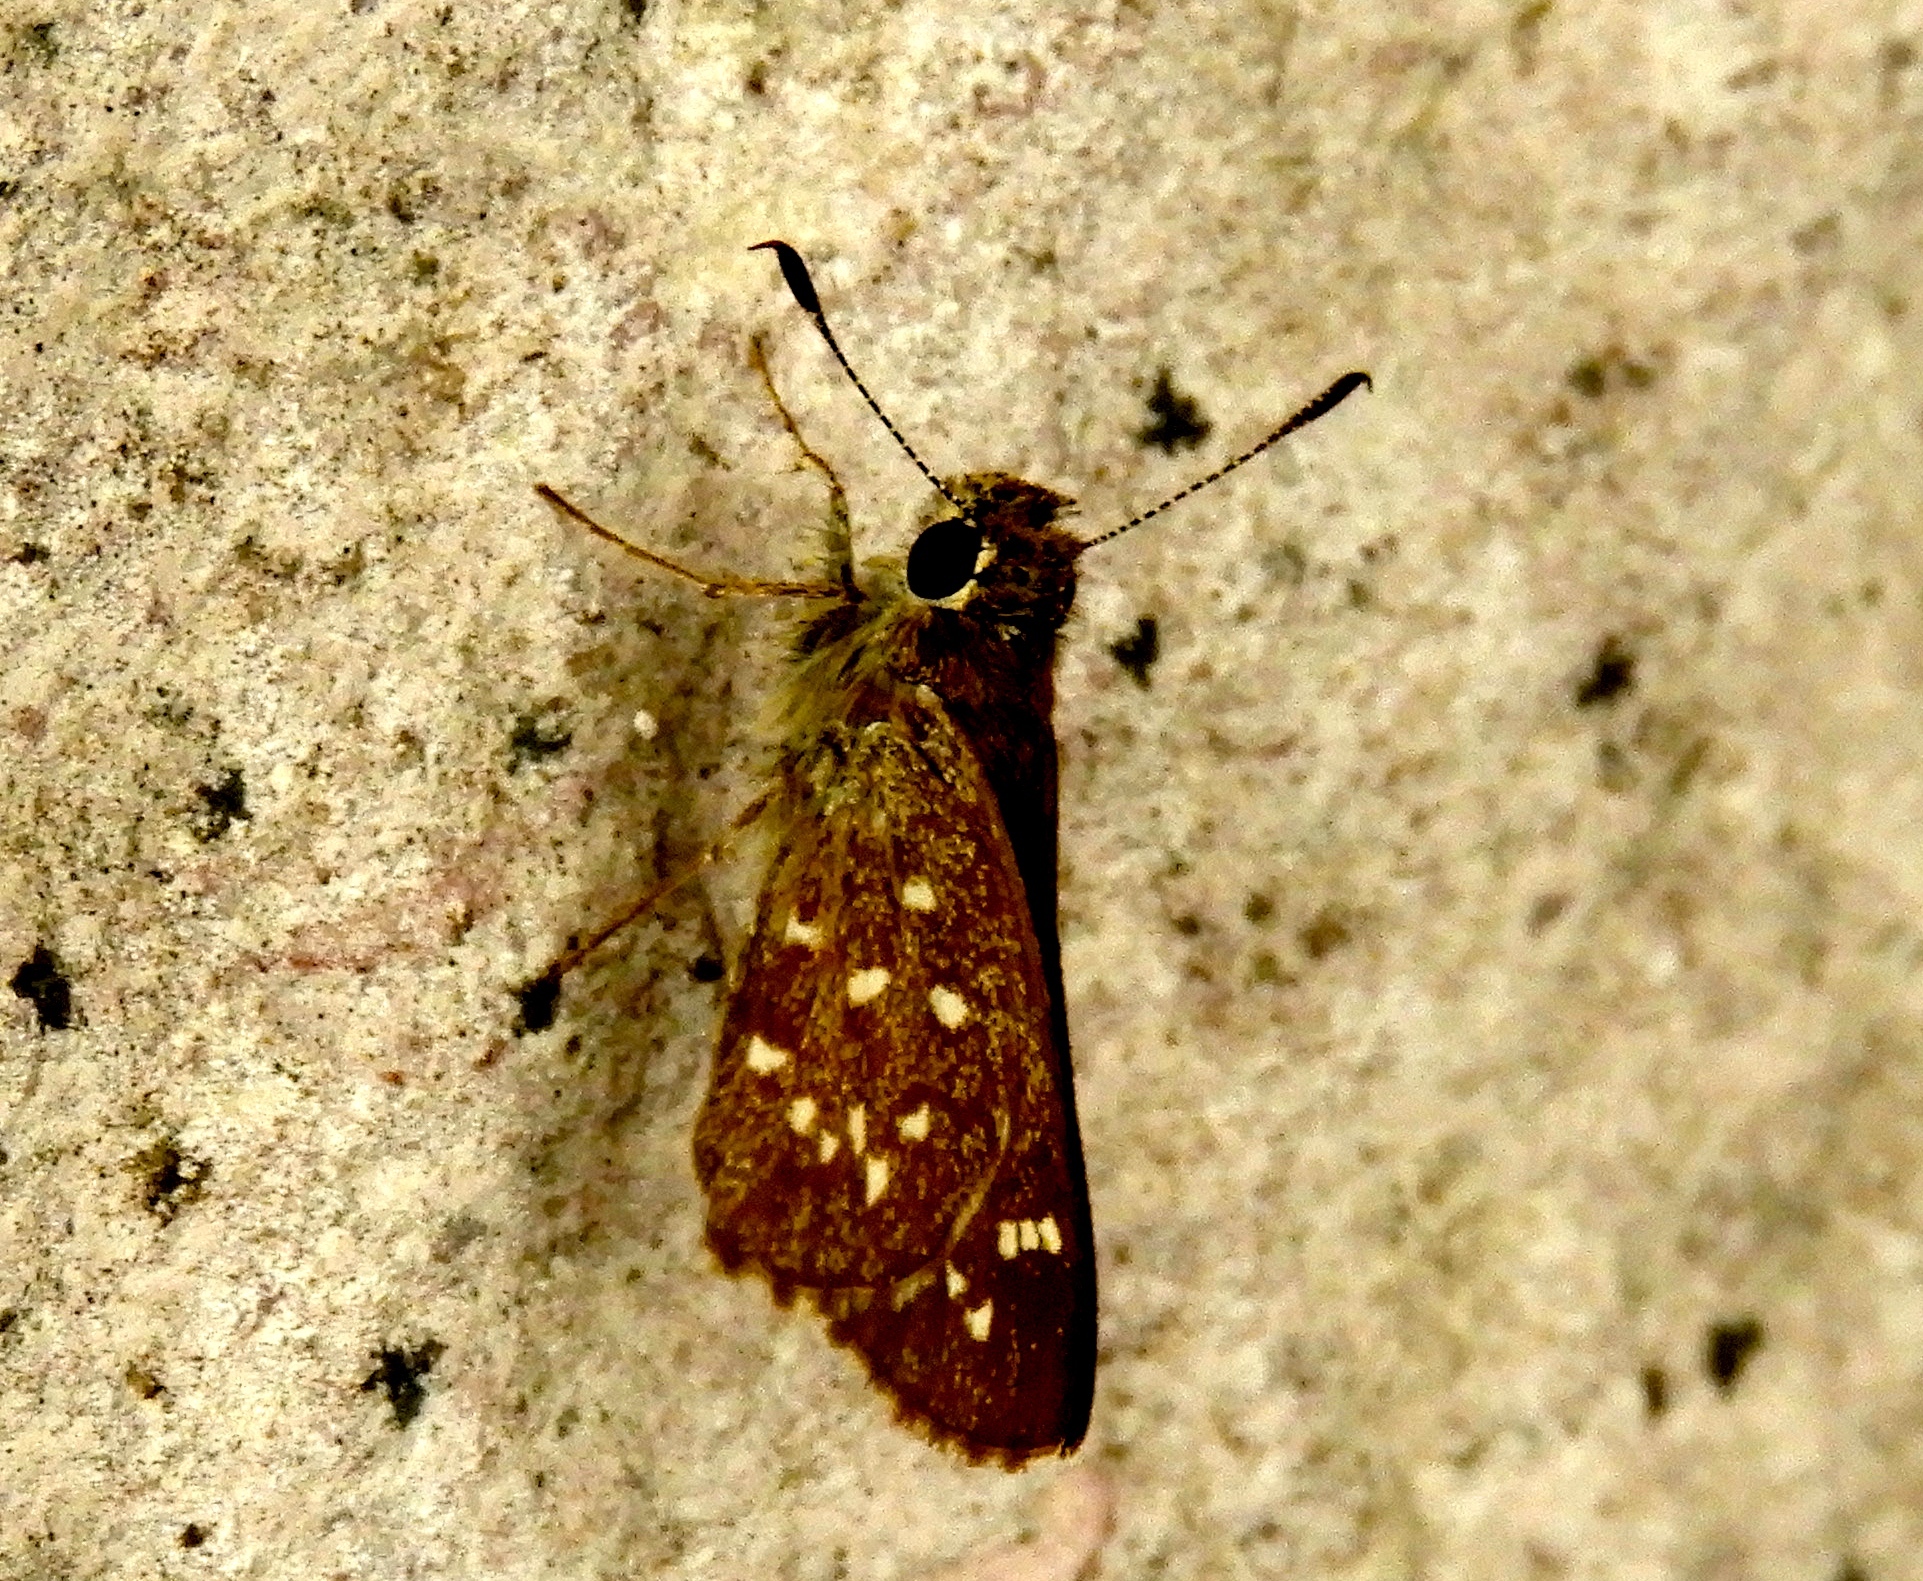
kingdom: Animalia
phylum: Arthropoda
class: Insecta
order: Lepidoptera
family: Hesperiidae
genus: Mastor
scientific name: Mastor tolteca
